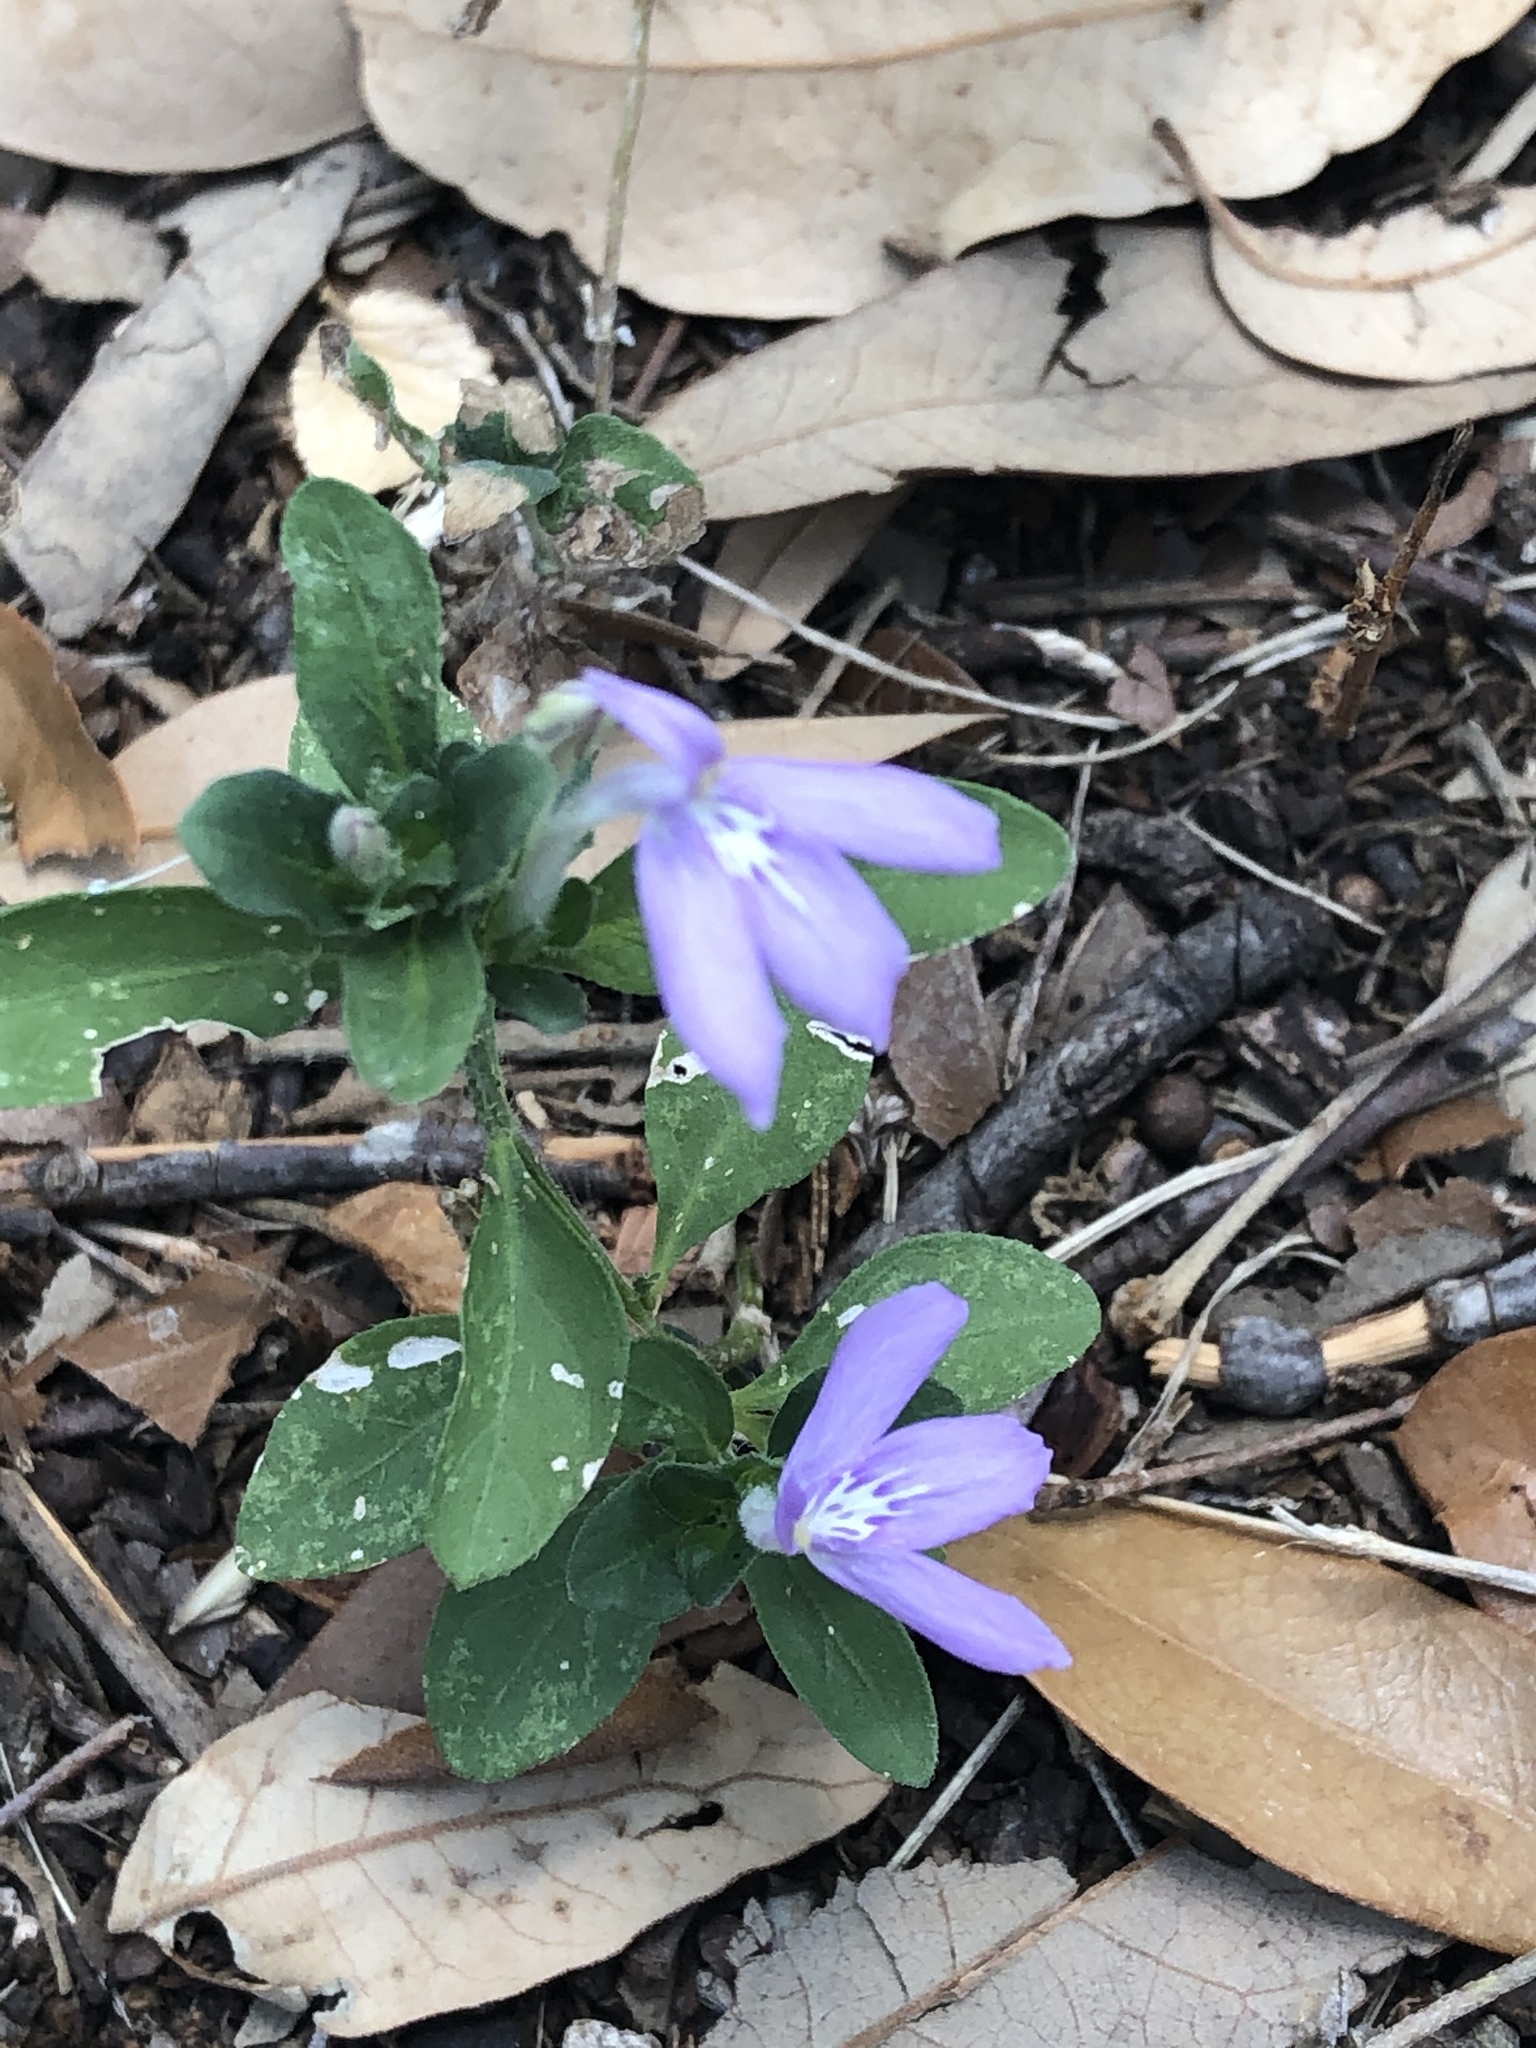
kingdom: Plantae
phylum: Tracheophyta
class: Magnoliopsida
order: Lamiales
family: Acanthaceae
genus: Justicia
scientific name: Justicia pilosella
